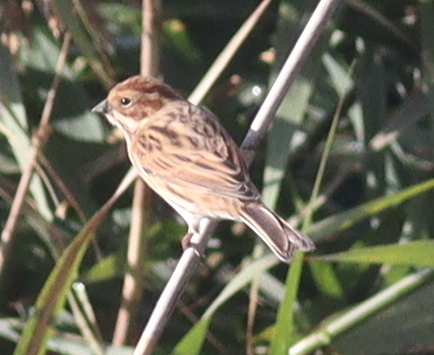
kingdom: Animalia
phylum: Chordata
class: Aves
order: Passeriformes
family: Emberizidae
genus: Emberiza
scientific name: Emberiza schoeniclus
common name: Reed bunting
